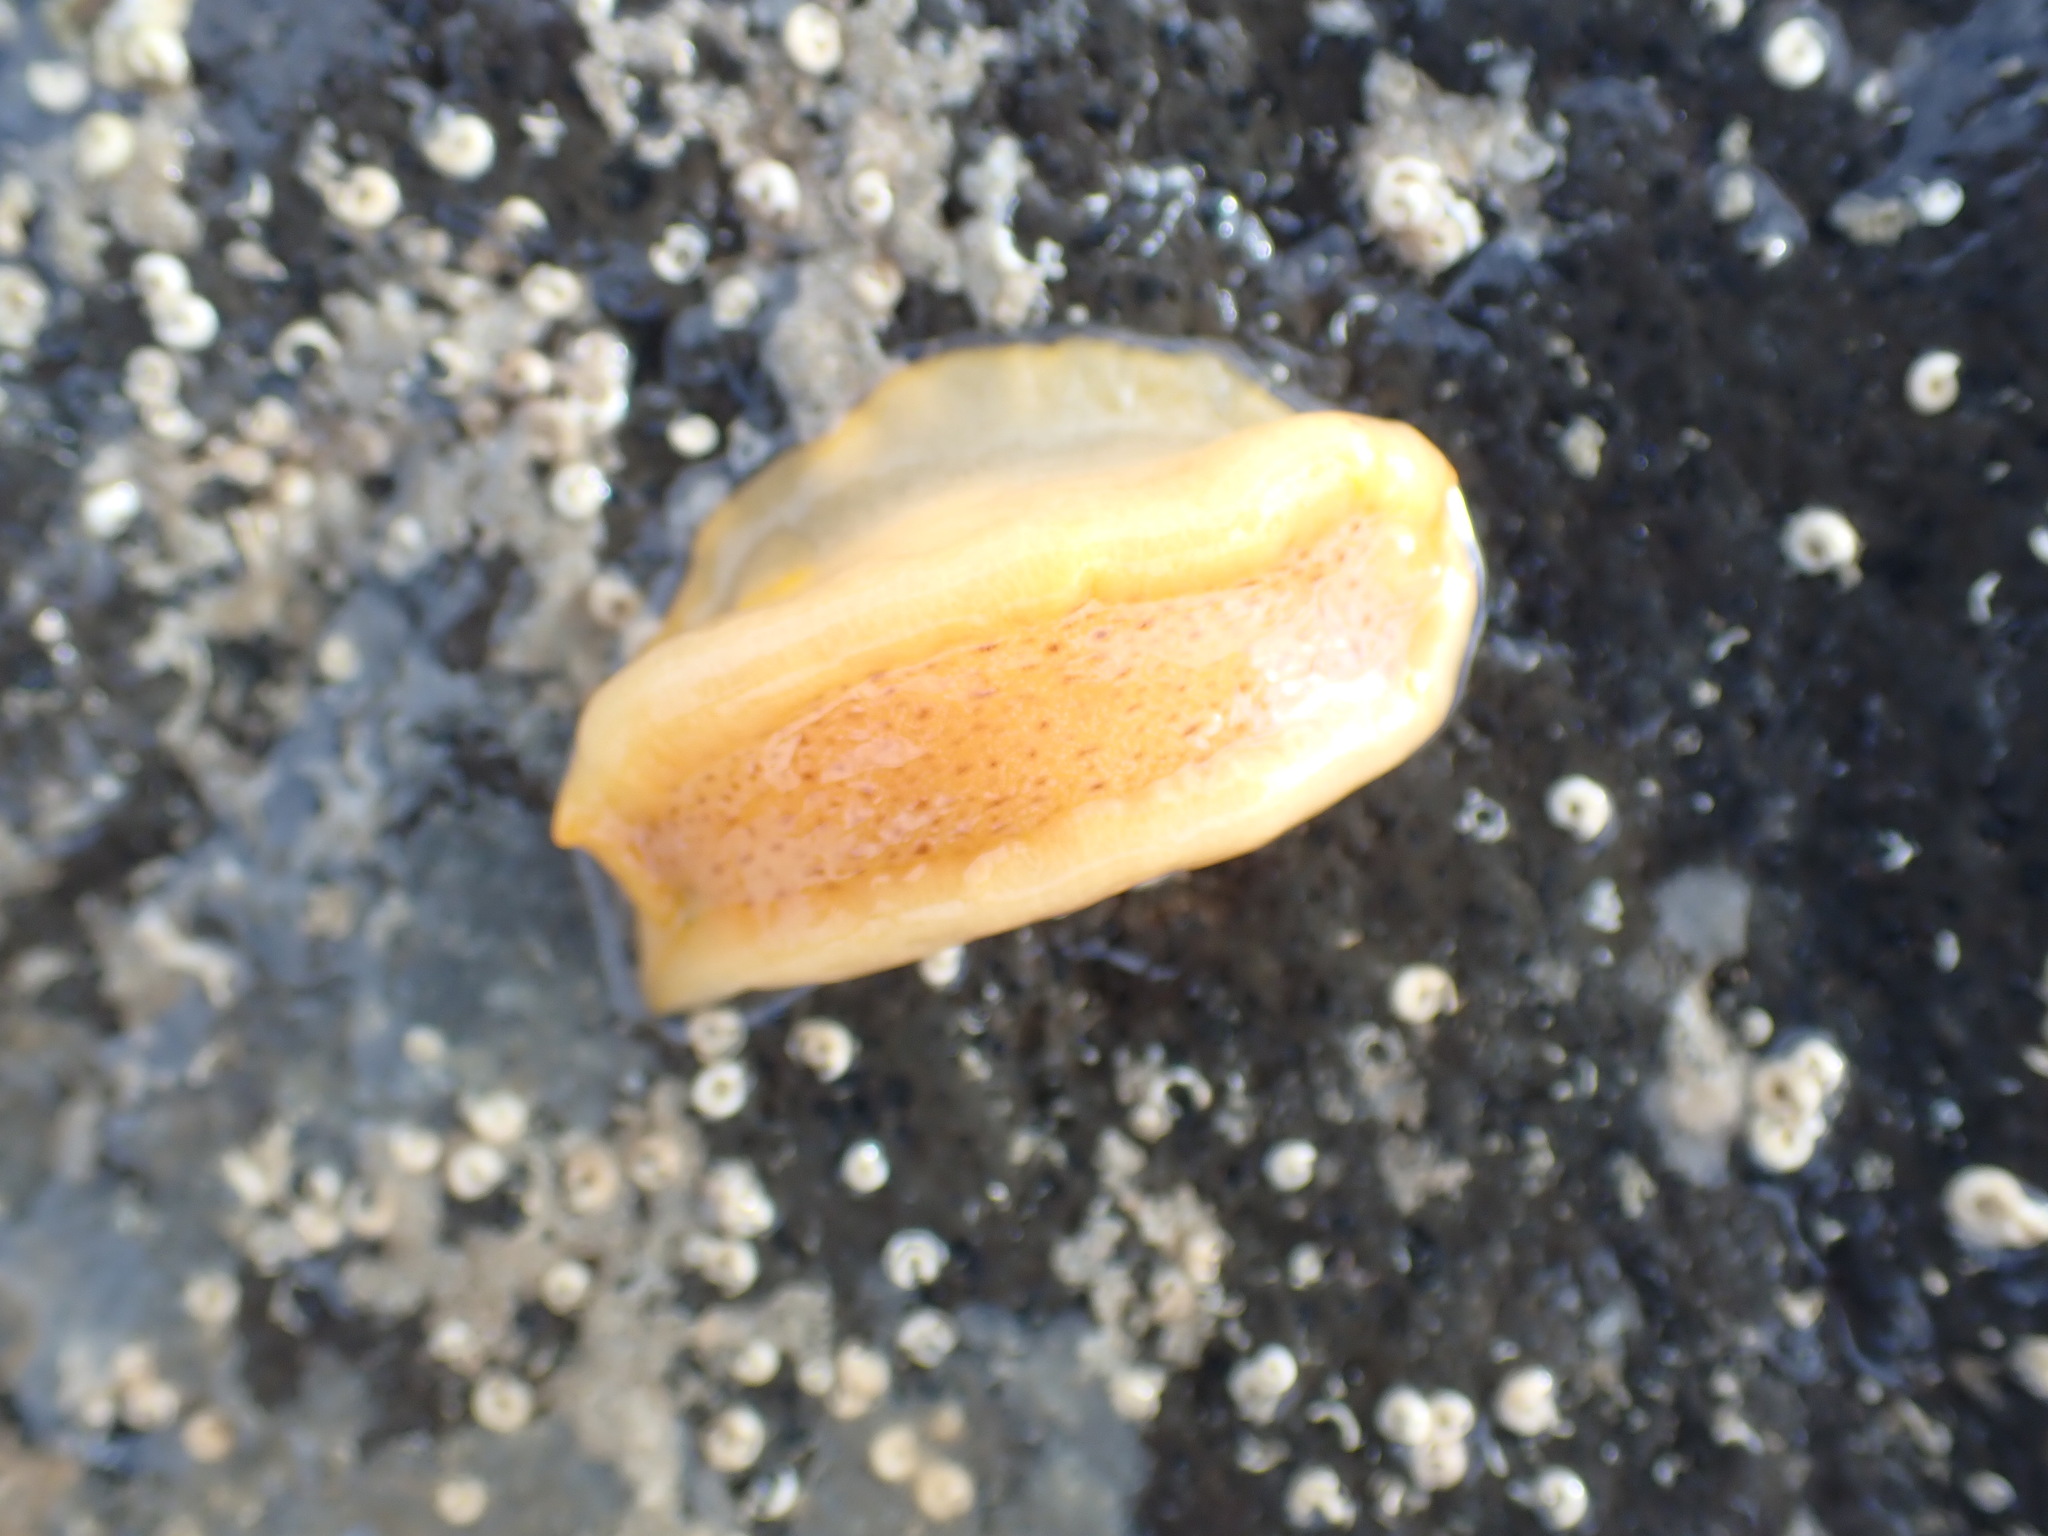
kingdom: Animalia
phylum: Mollusca
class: Gastropoda
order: Nudibranchia
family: Dendrodorididae
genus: Dendrodoris
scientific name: Dendrodoris citrina
